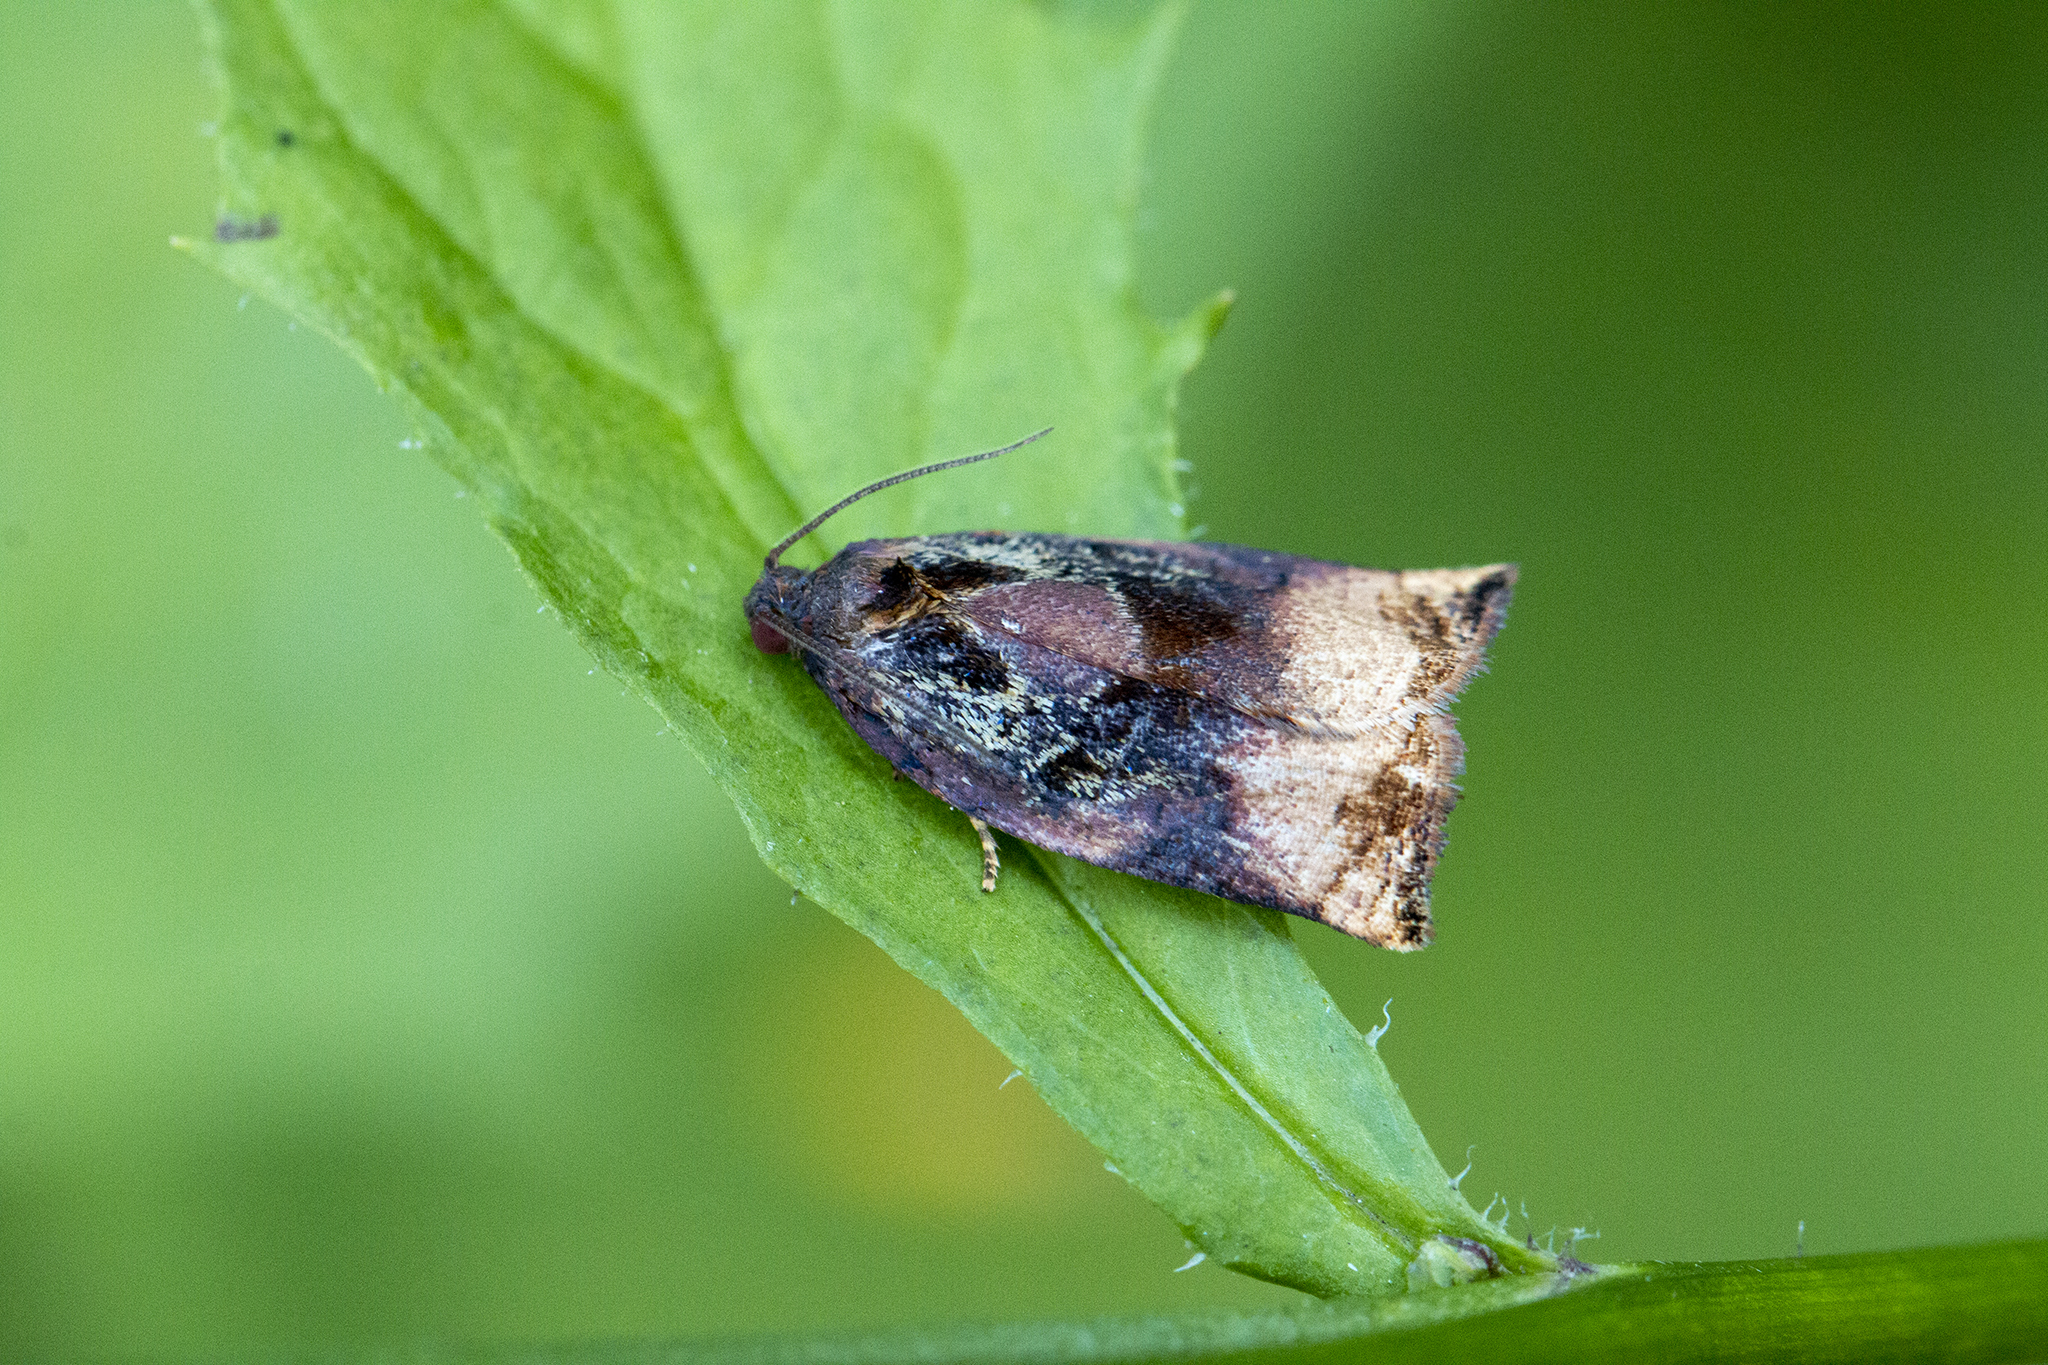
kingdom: Animalia
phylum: Arthropoda
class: Insecta
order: Lepidoptera
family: Tortricidae
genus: Archips
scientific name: Archips podana
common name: Large fruit-tree tortrix
